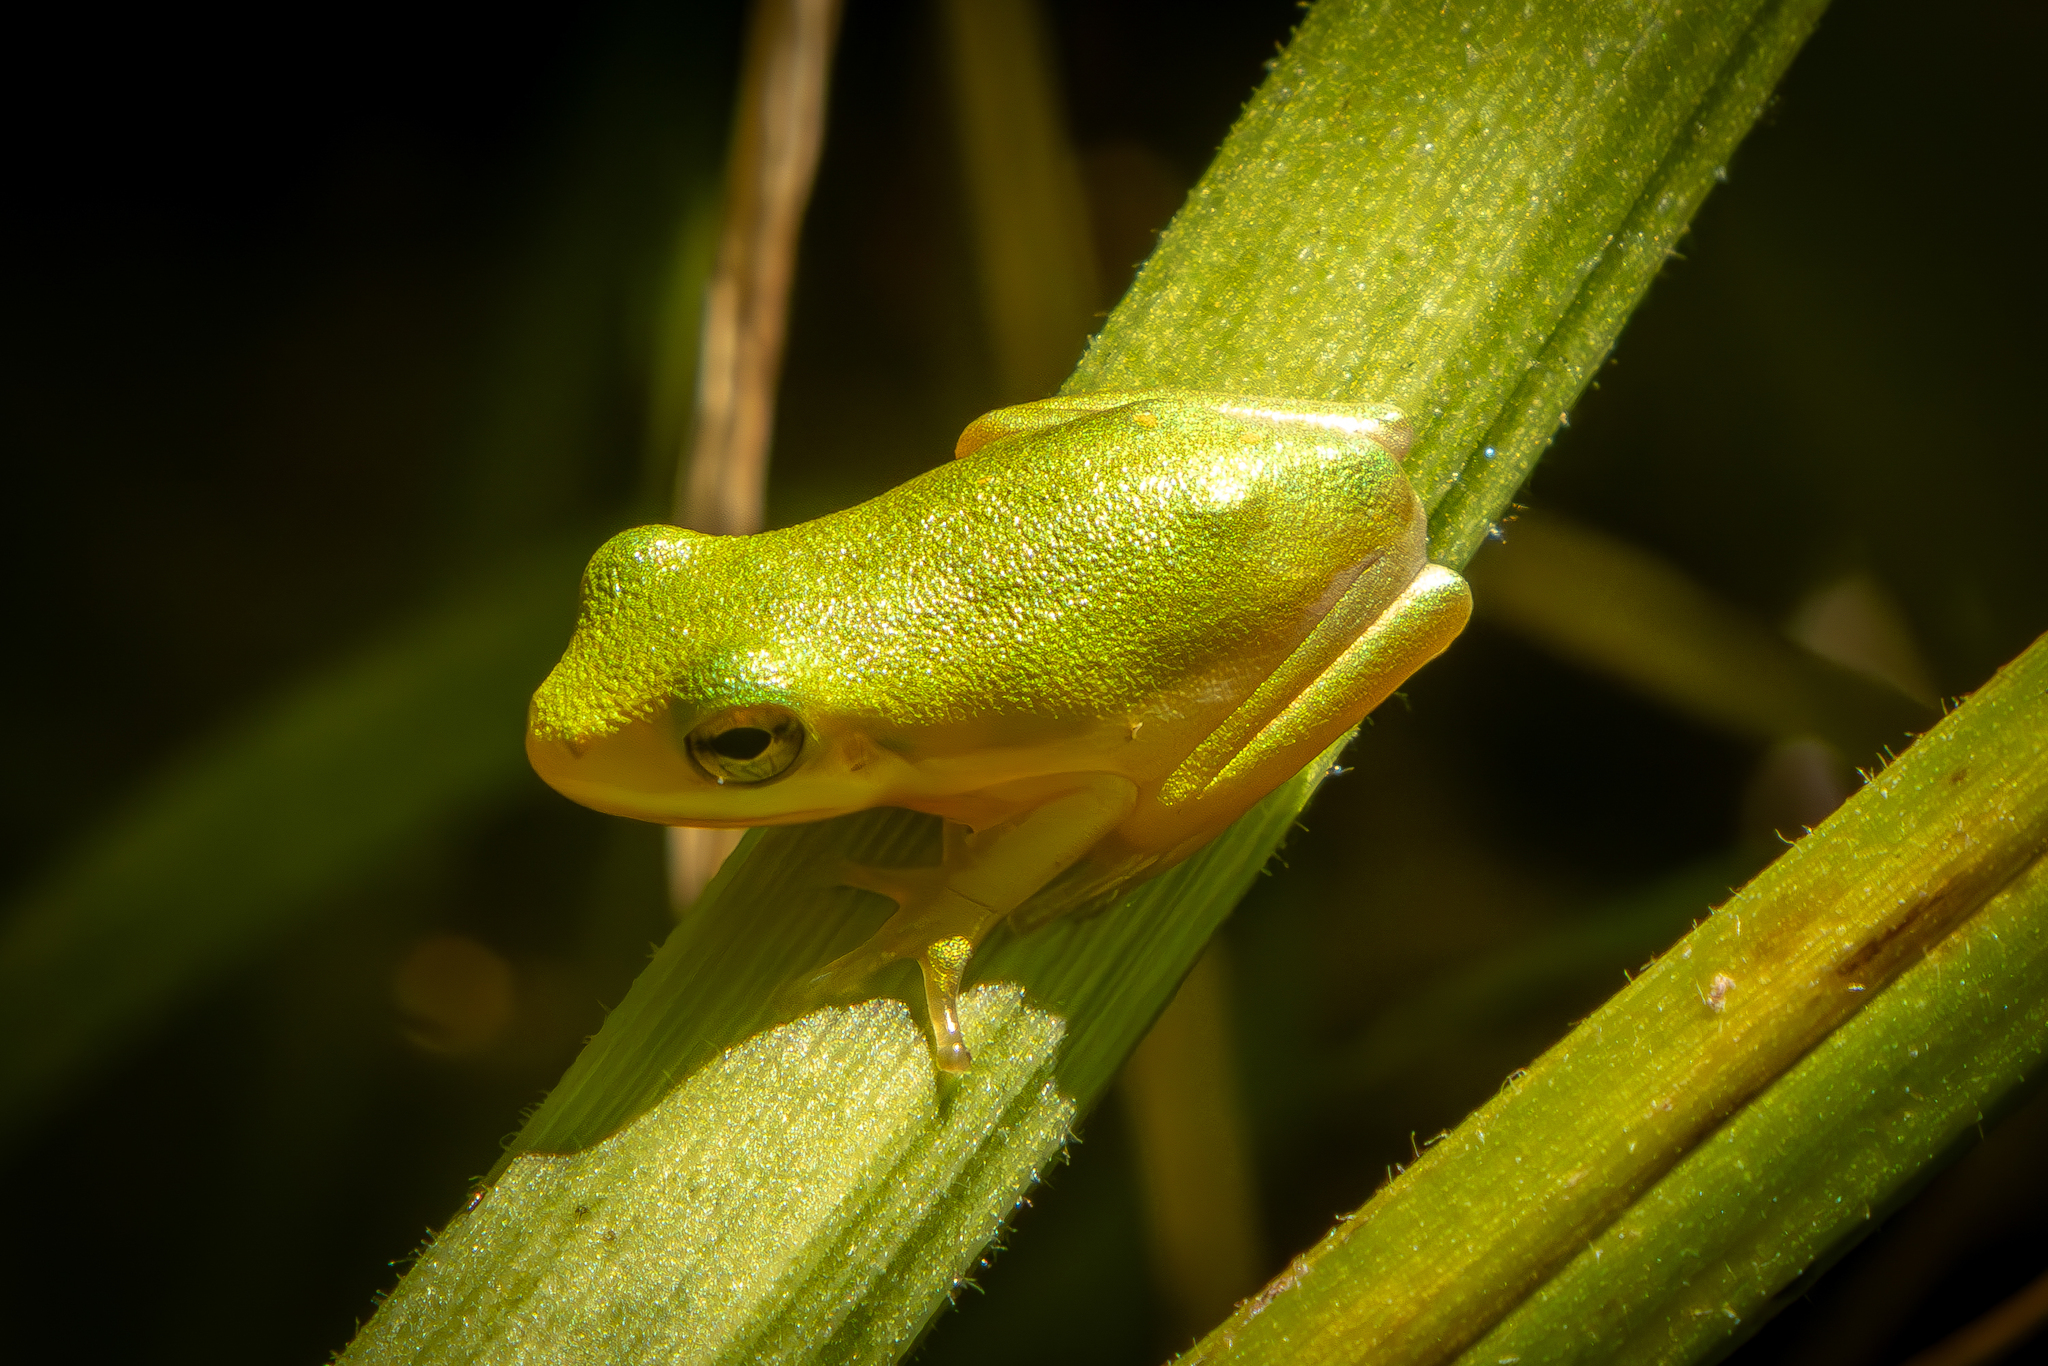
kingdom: Animalia
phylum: Chordata
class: Amphibia
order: Anura
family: Hylidae
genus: Dryophytes
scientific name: Dryophytes cinereus
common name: Green treefrog
